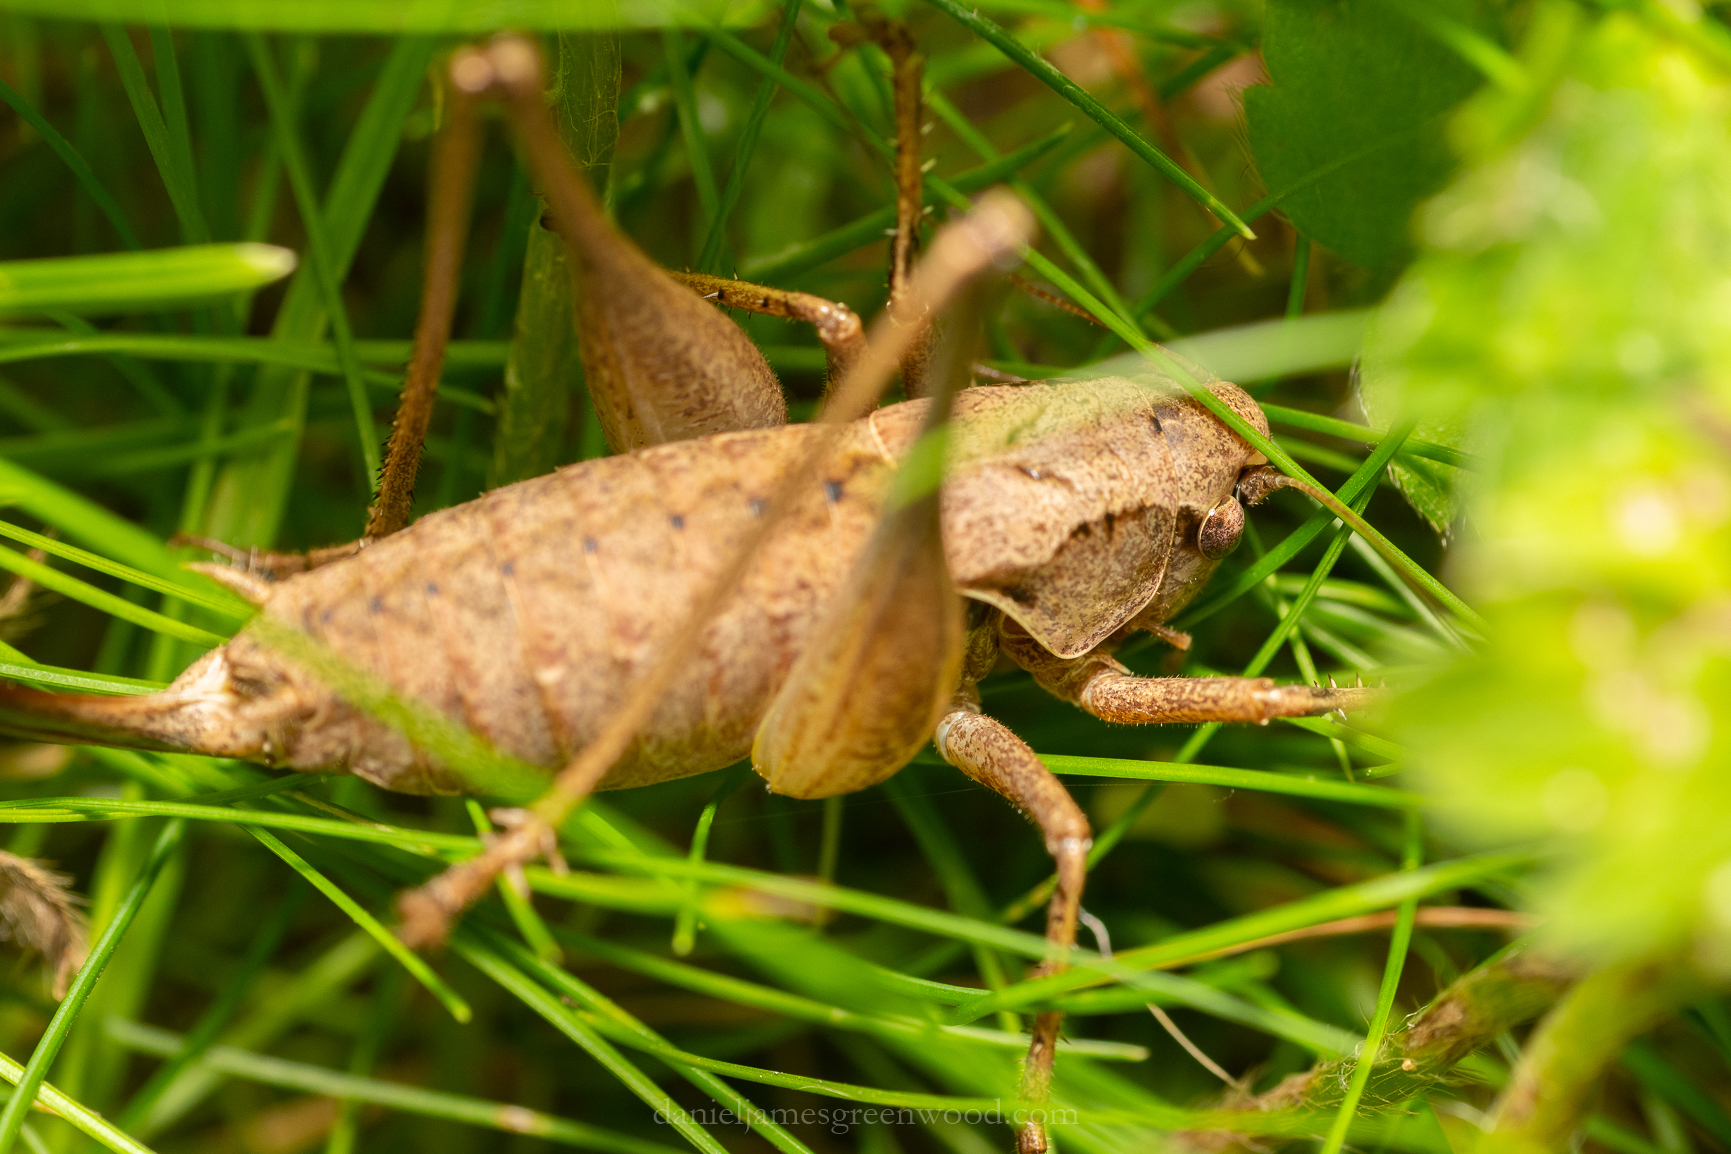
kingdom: Animalia
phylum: Arthropoda
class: Insecta
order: Orthoptera
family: Tettigoniidae
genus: Pholidoptera
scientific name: Pholidoptera griseoaptera
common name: Dark bush-cricket
